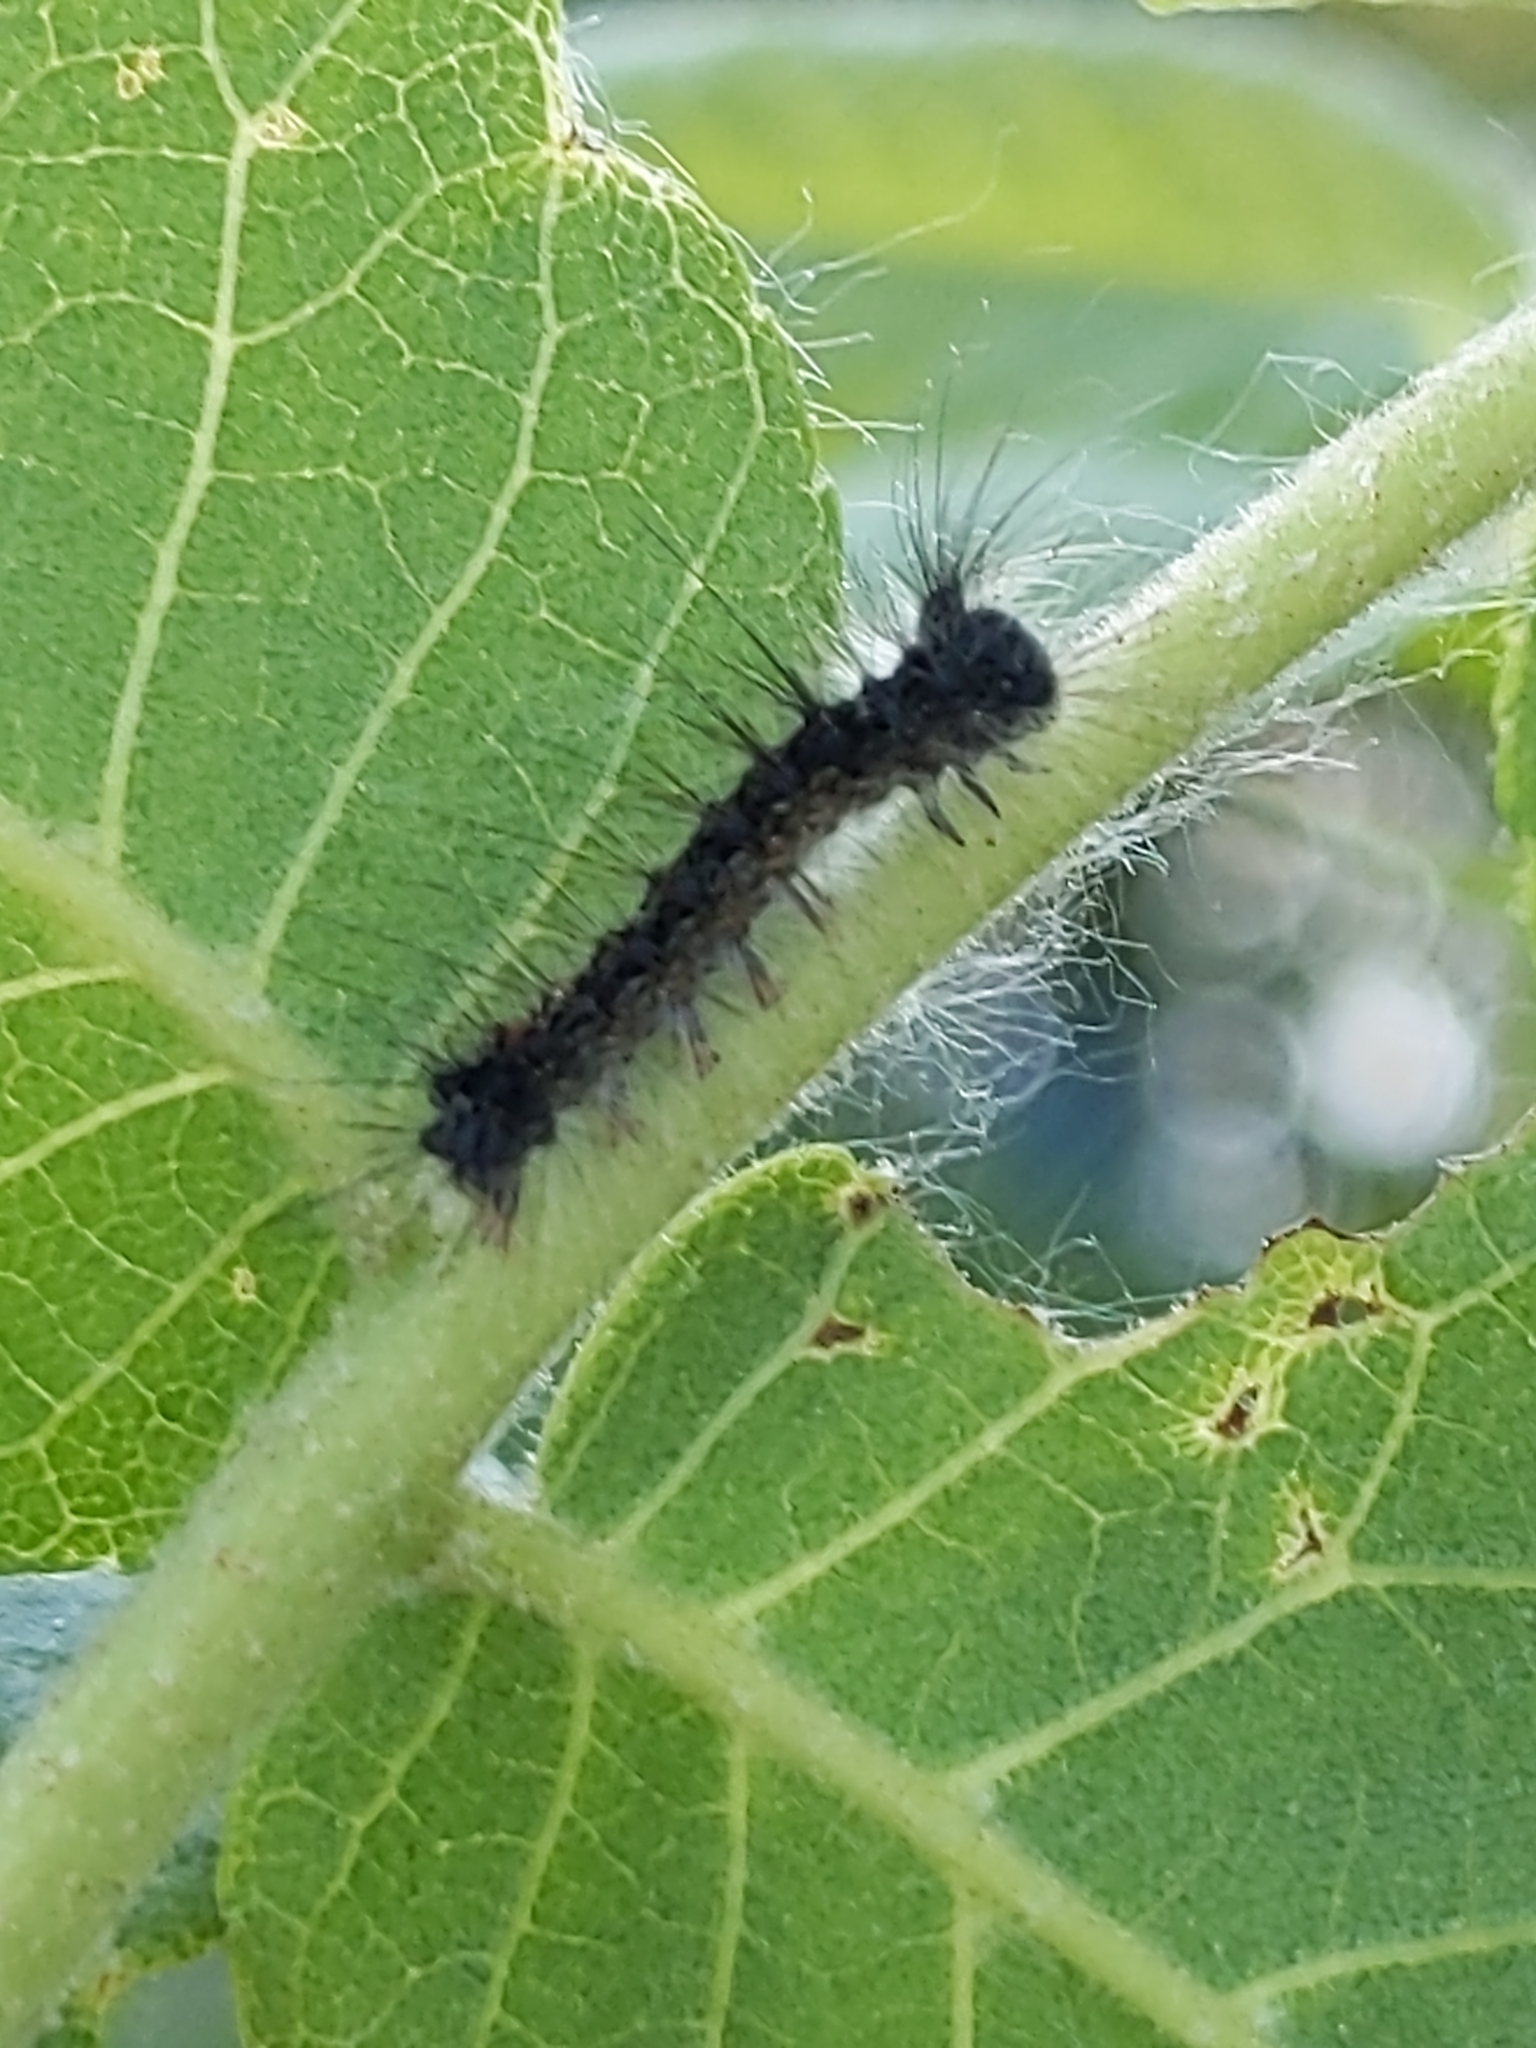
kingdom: Animalia
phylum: Arthropoda
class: Insecta
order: Lepidoptera
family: Erebidae
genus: Lymantria
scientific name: Lymantria dispar
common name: Gypsy moth
